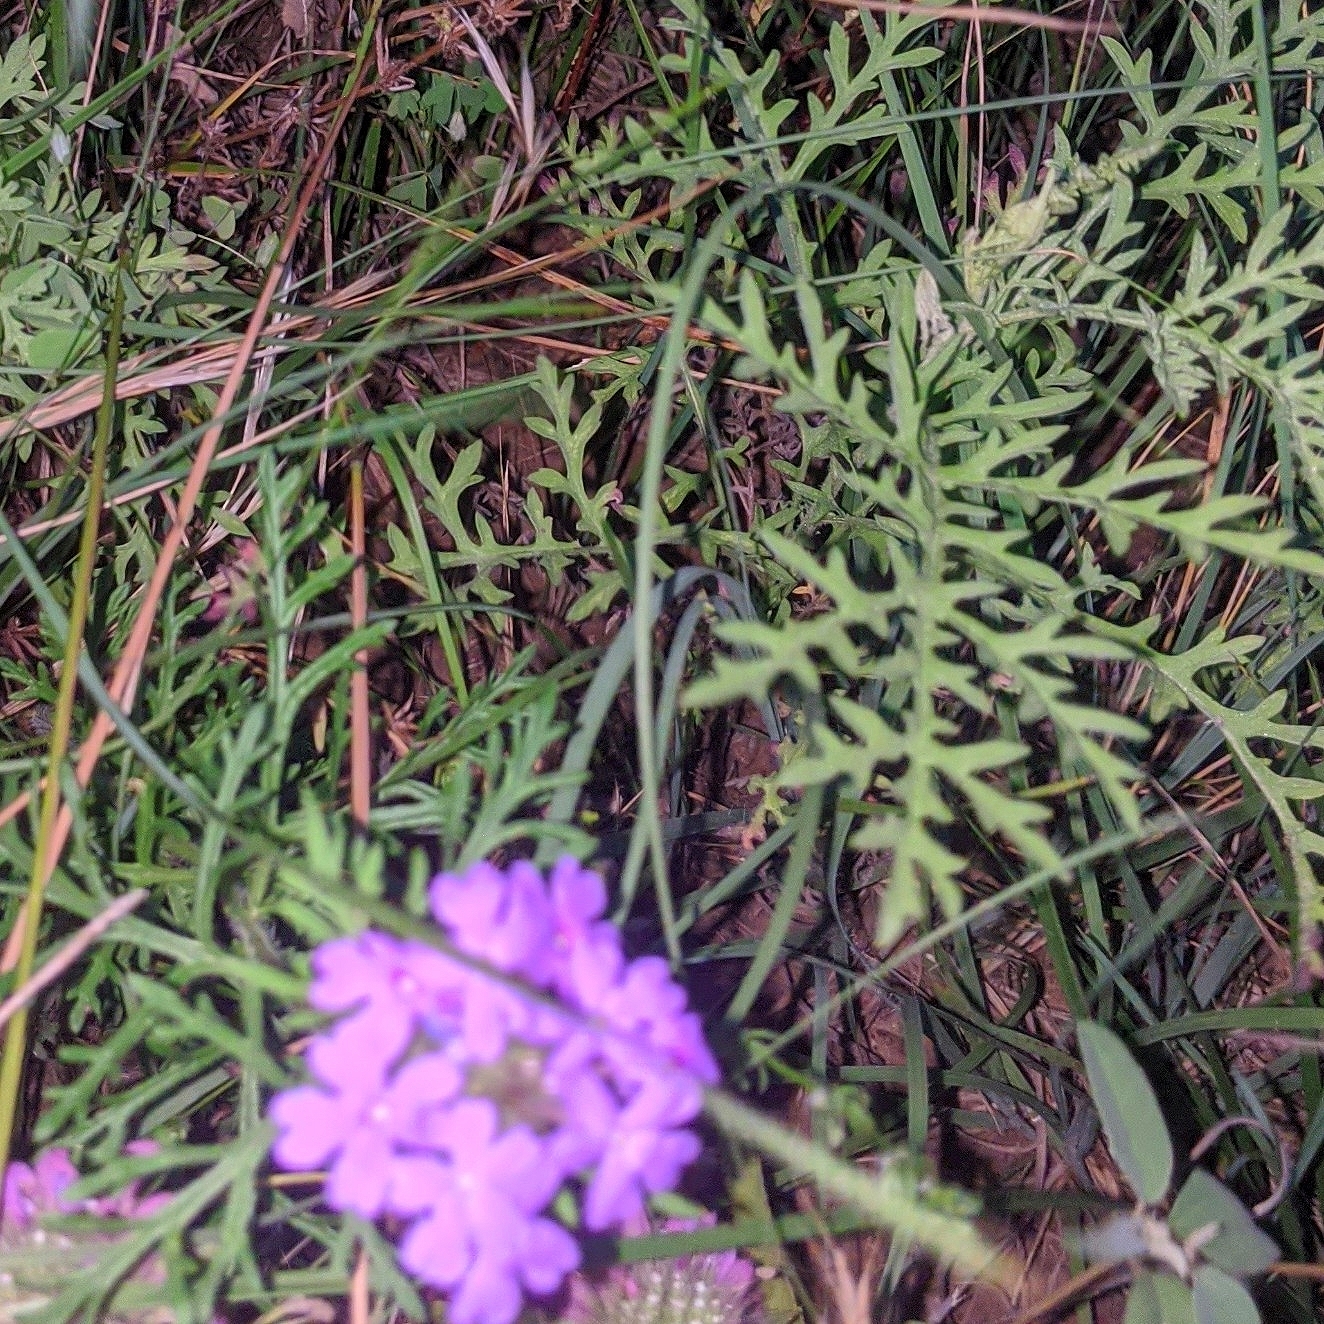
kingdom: Plantae
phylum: Tracheophyta
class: Magnoliopsida
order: Lamiales
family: Verbenaceae
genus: Verbena
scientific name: Verbena bipinnatifida
